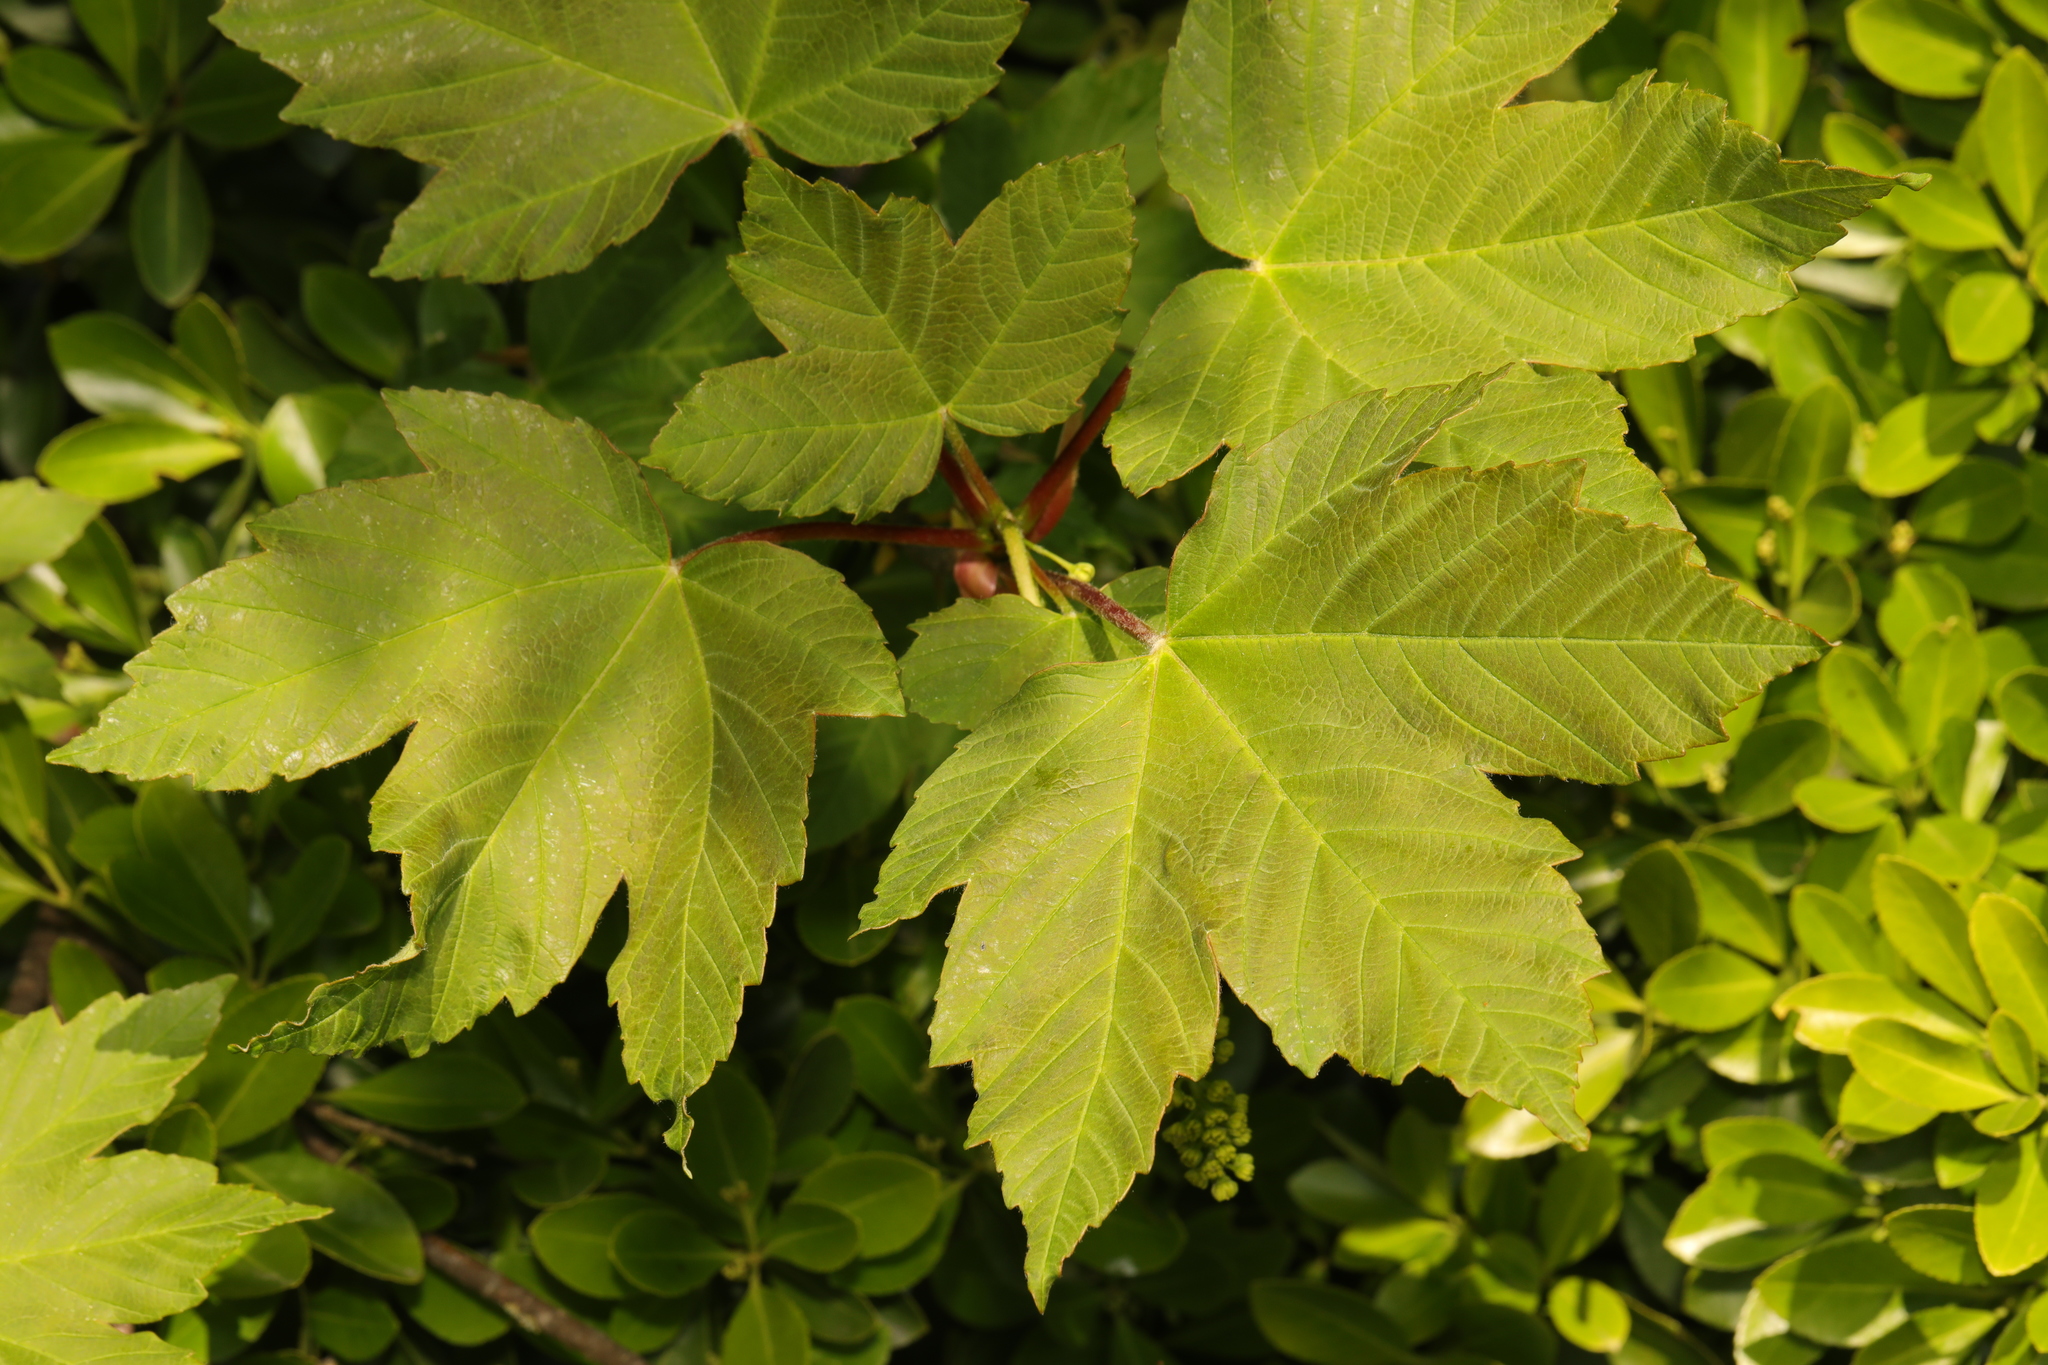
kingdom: Plantae
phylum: Tracheophyta
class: Magnoliopsida
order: Sapindales
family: Sapindaceae
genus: Acer
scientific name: Acer pseudoplatanus
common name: Sycamore
